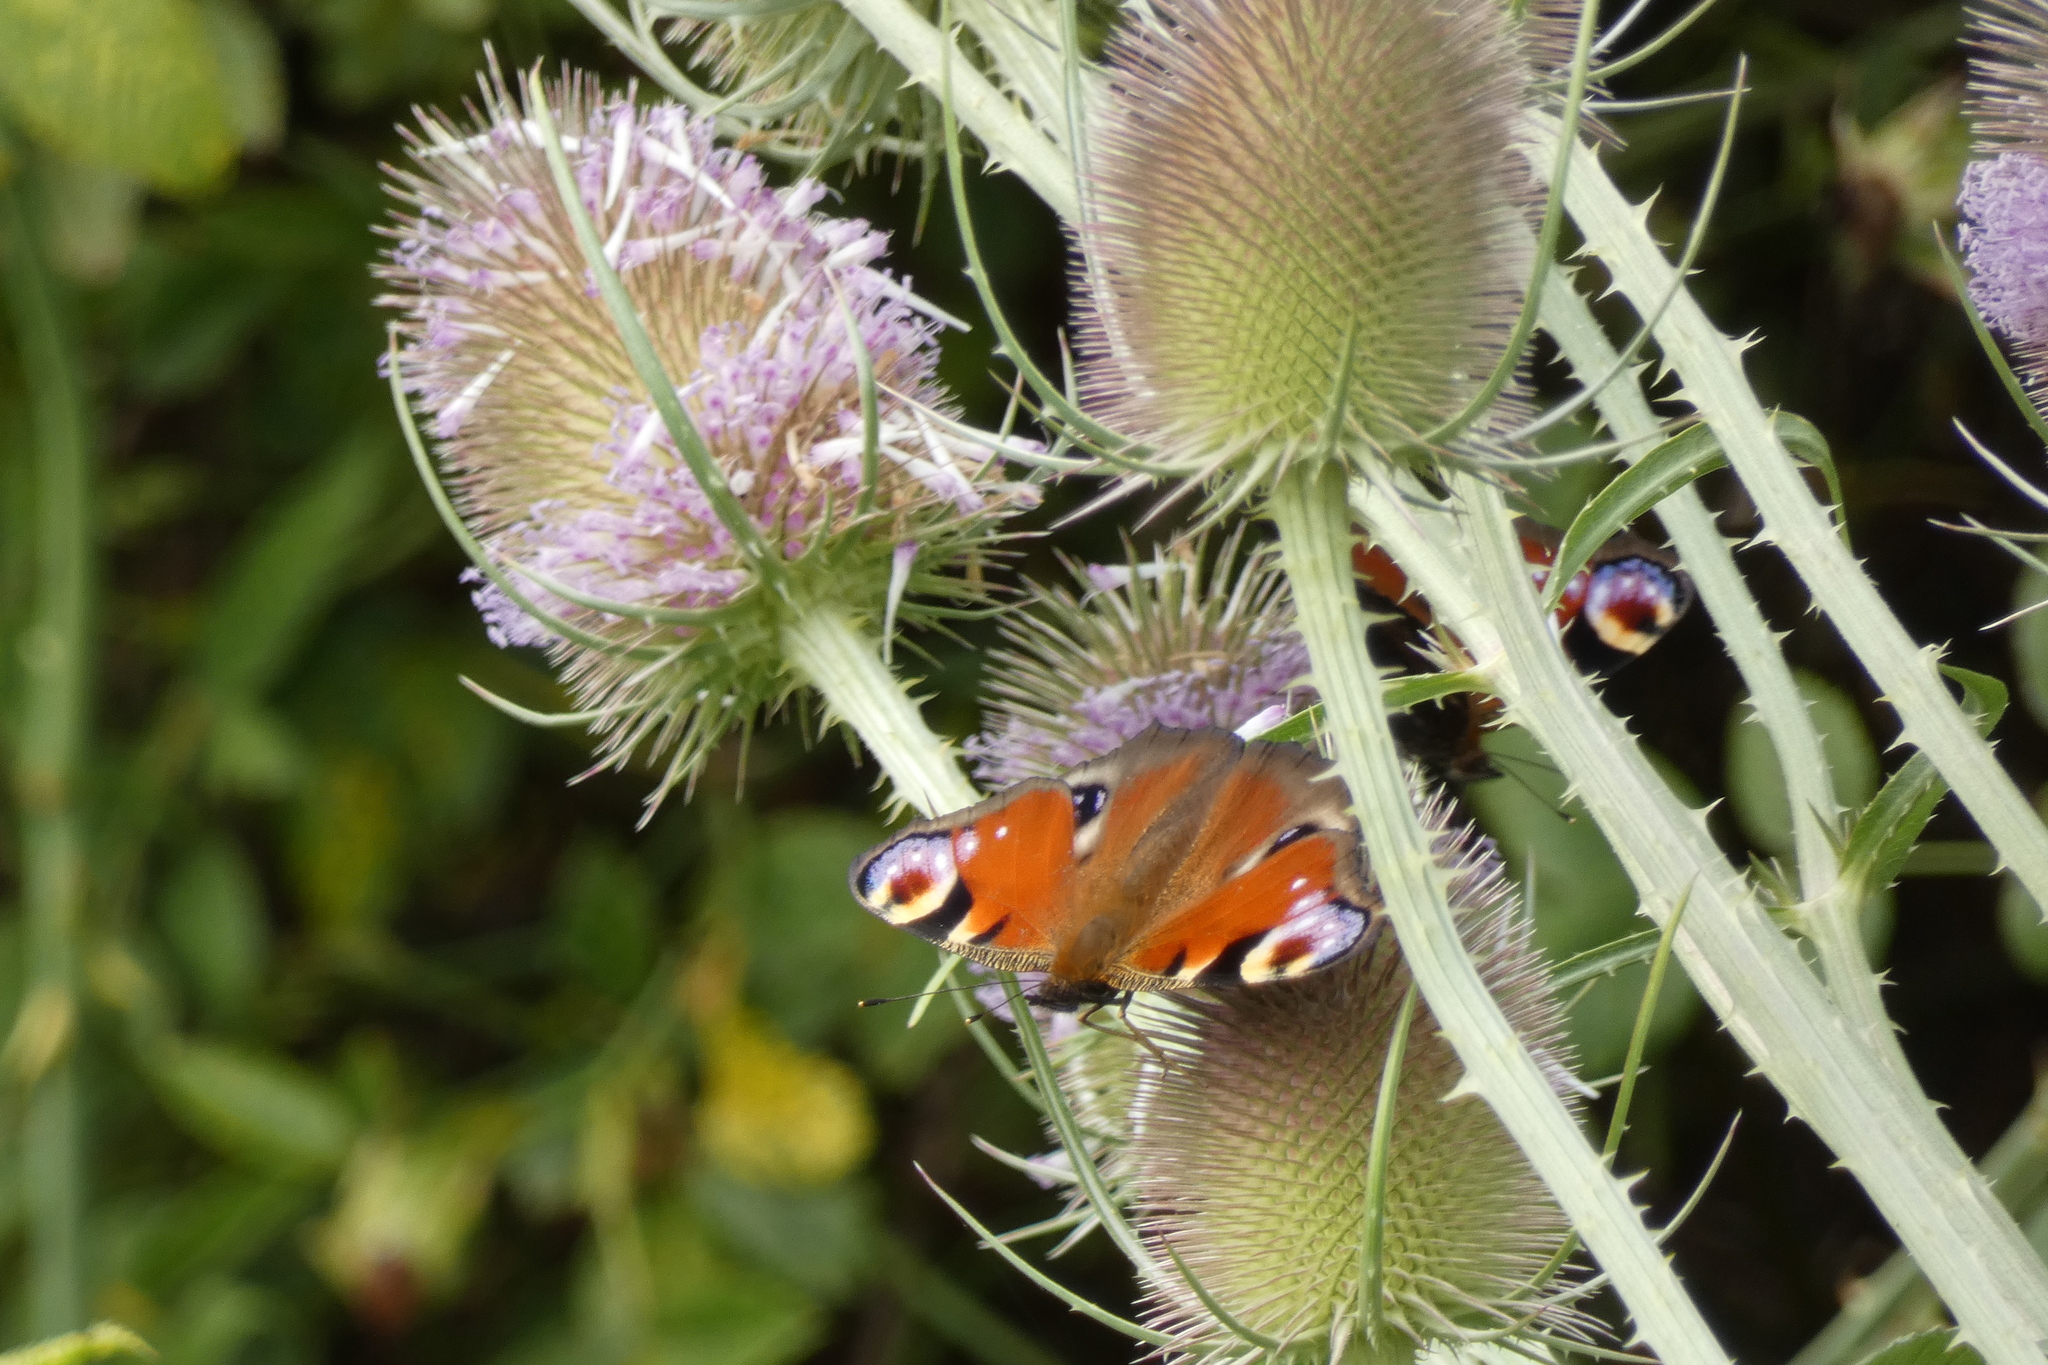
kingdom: Animalia
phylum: Arthropoda
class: Insecta
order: Lepidoptera
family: Nymphalidae
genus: Aglais
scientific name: Aglais io
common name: Peacock
